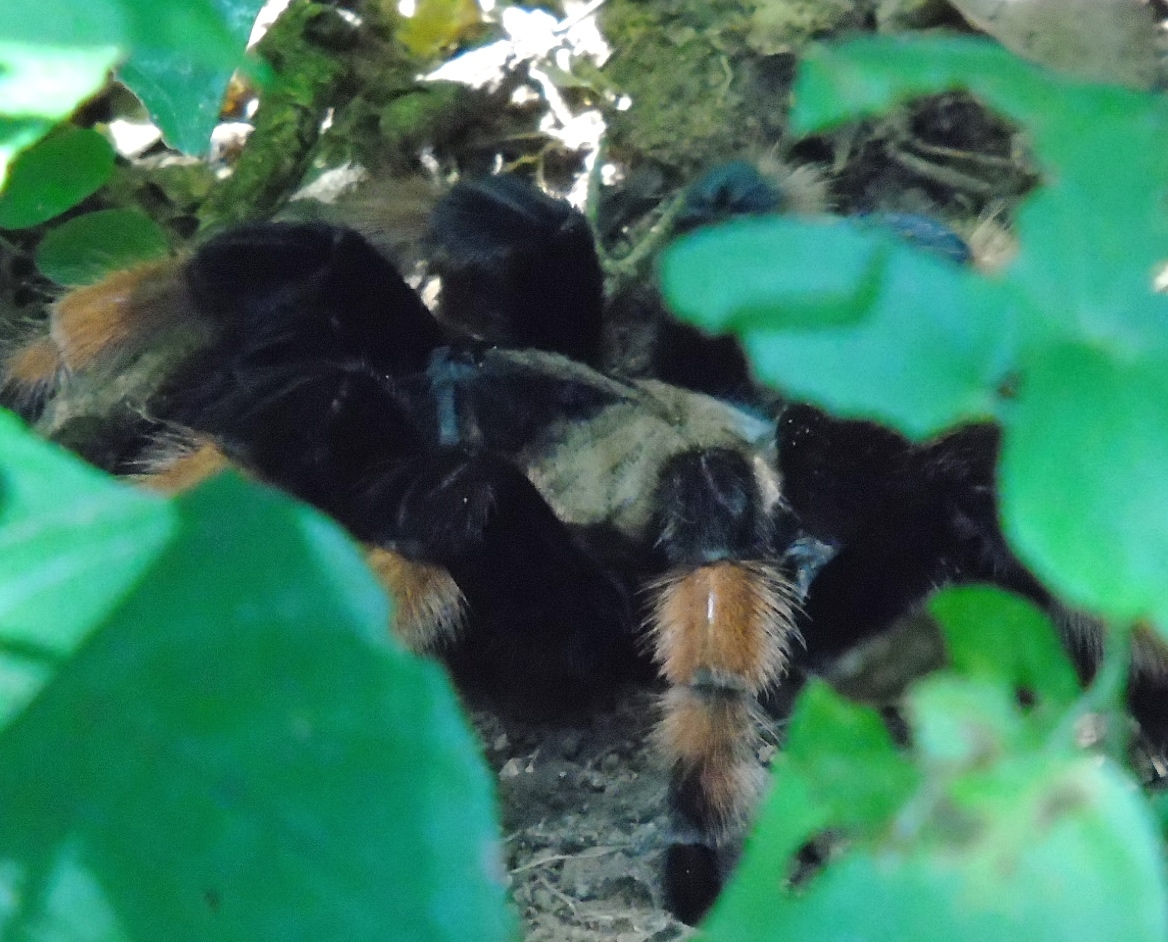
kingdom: Animalia
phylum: Arthropoda
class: Arachnida
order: Araneae
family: Theraphosidae
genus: Brachypelma
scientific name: Brachypelma emilia
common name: Mexican redleg
